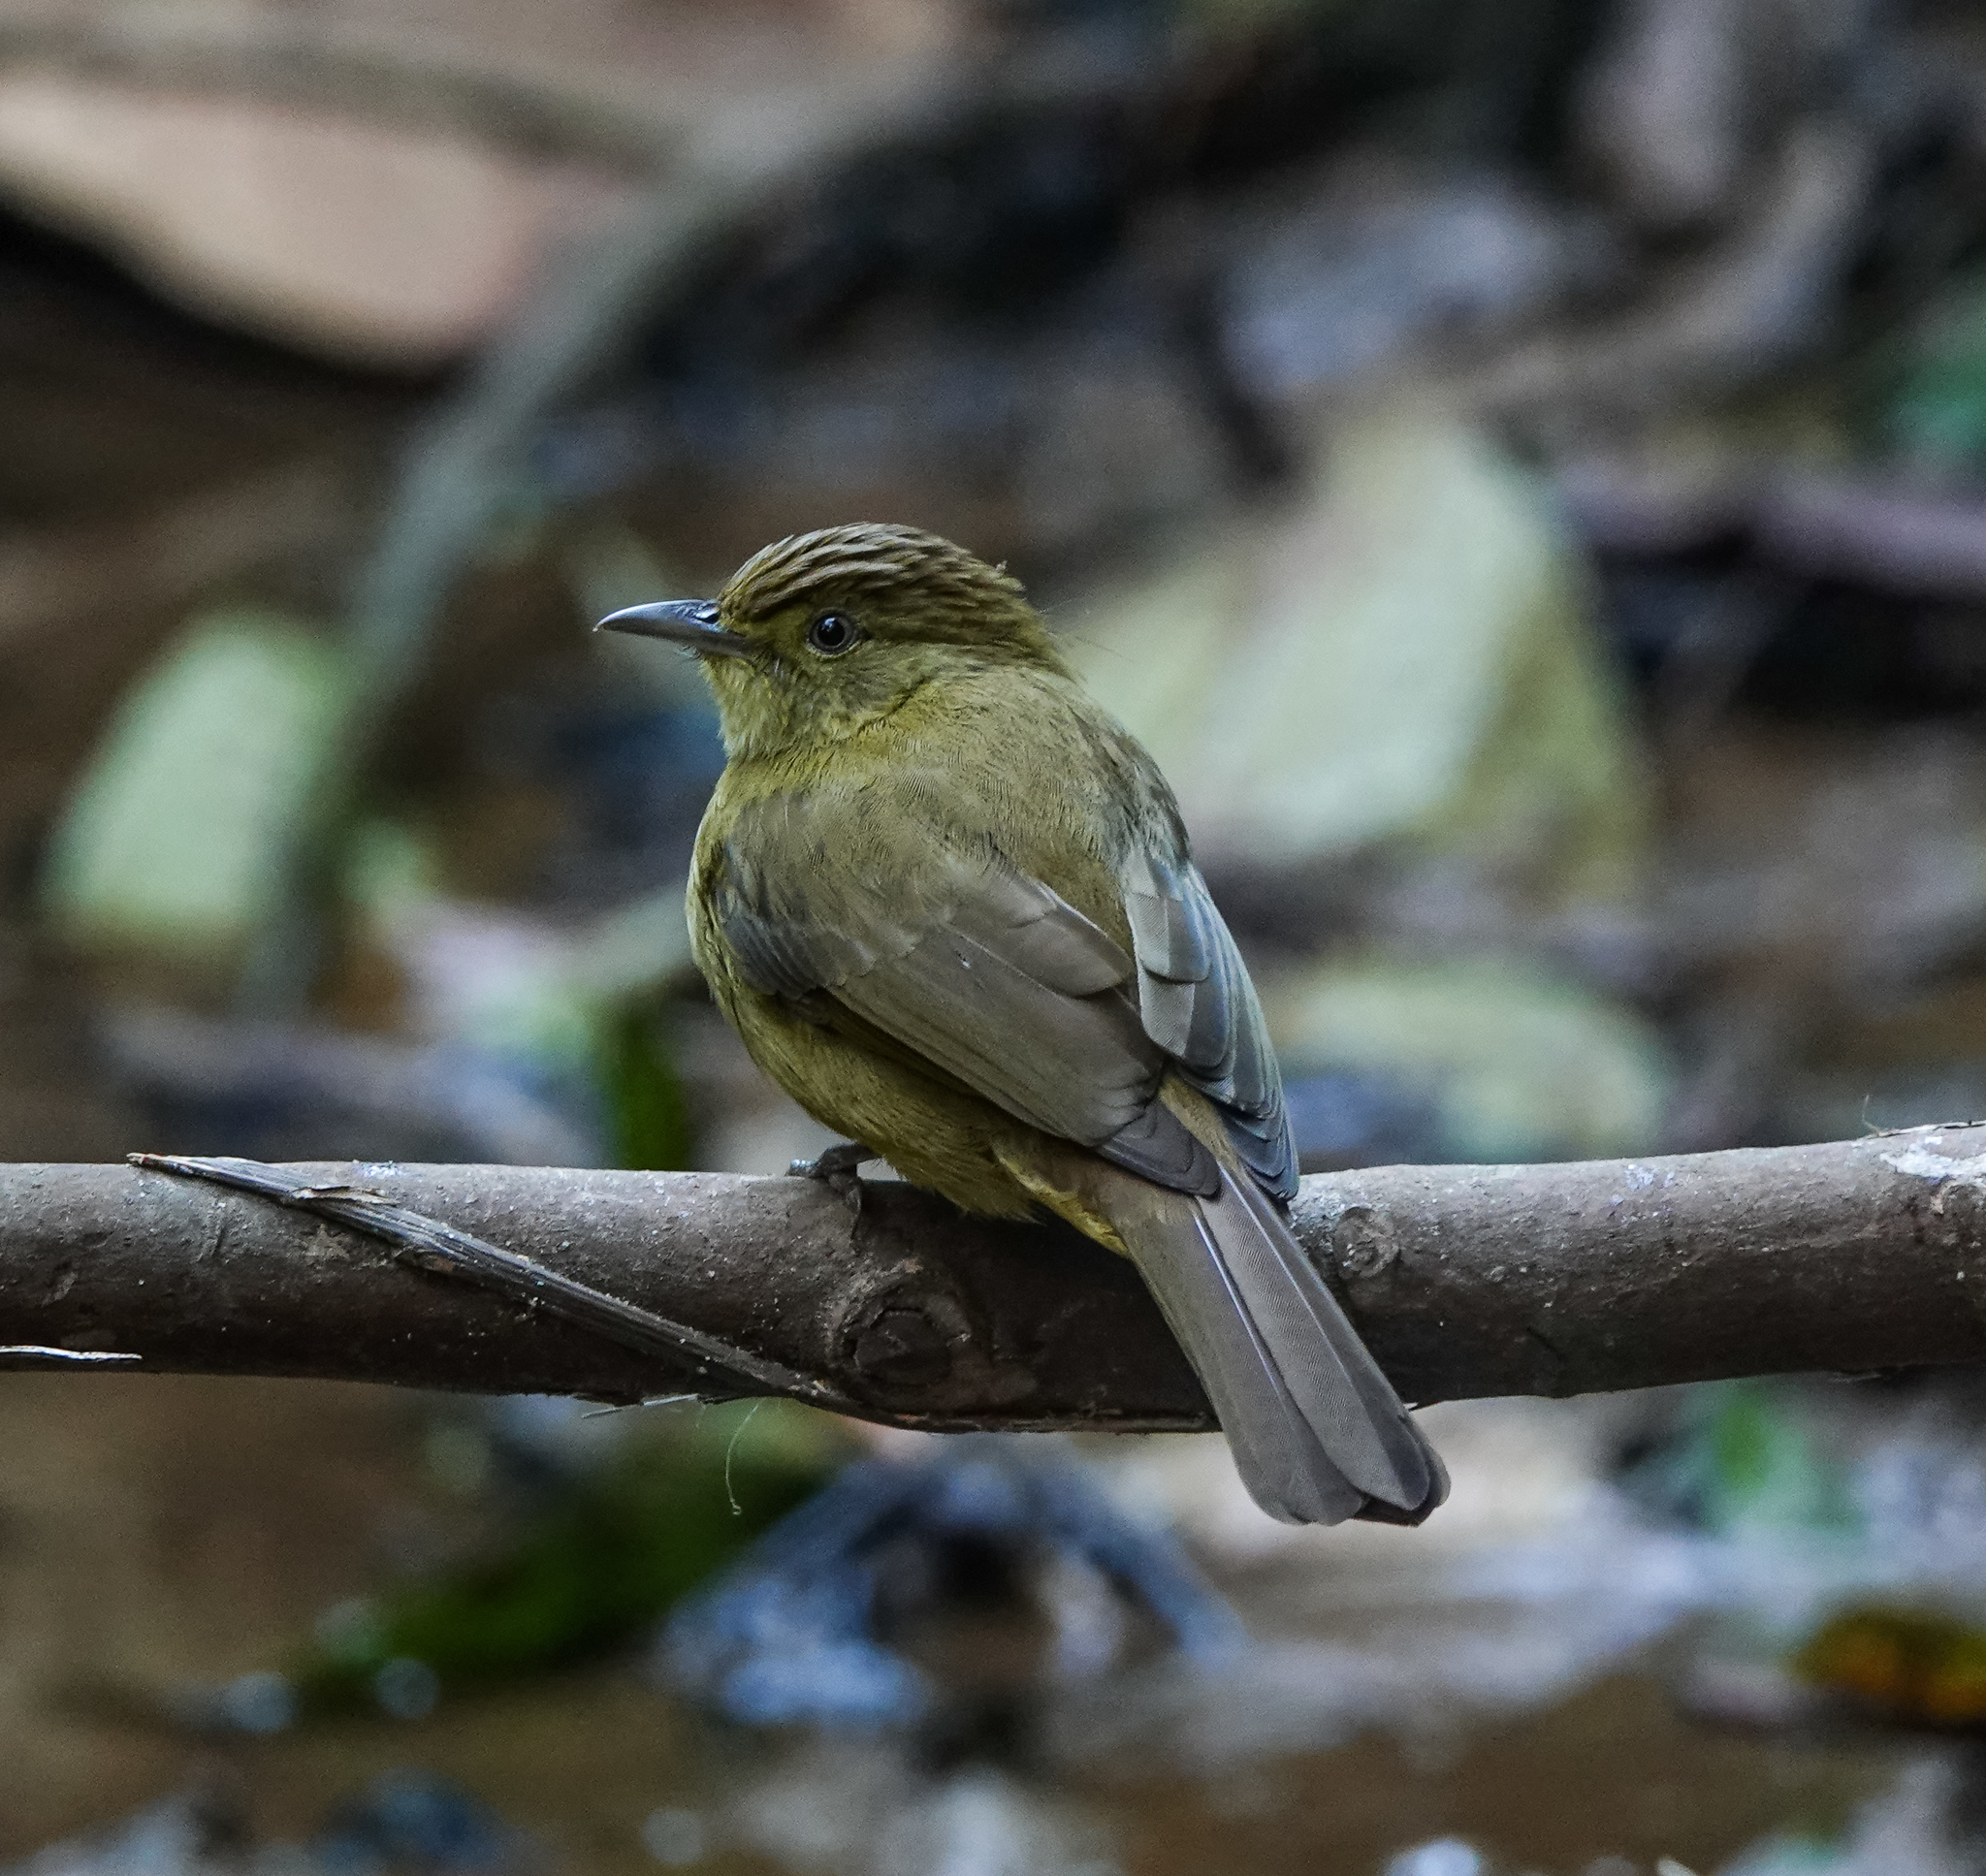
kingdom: Animalia
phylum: Chordata
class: Aves
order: Passeriformes
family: Pycnonotidae
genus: Iole
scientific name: Iole virescens
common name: Olive bulbul
